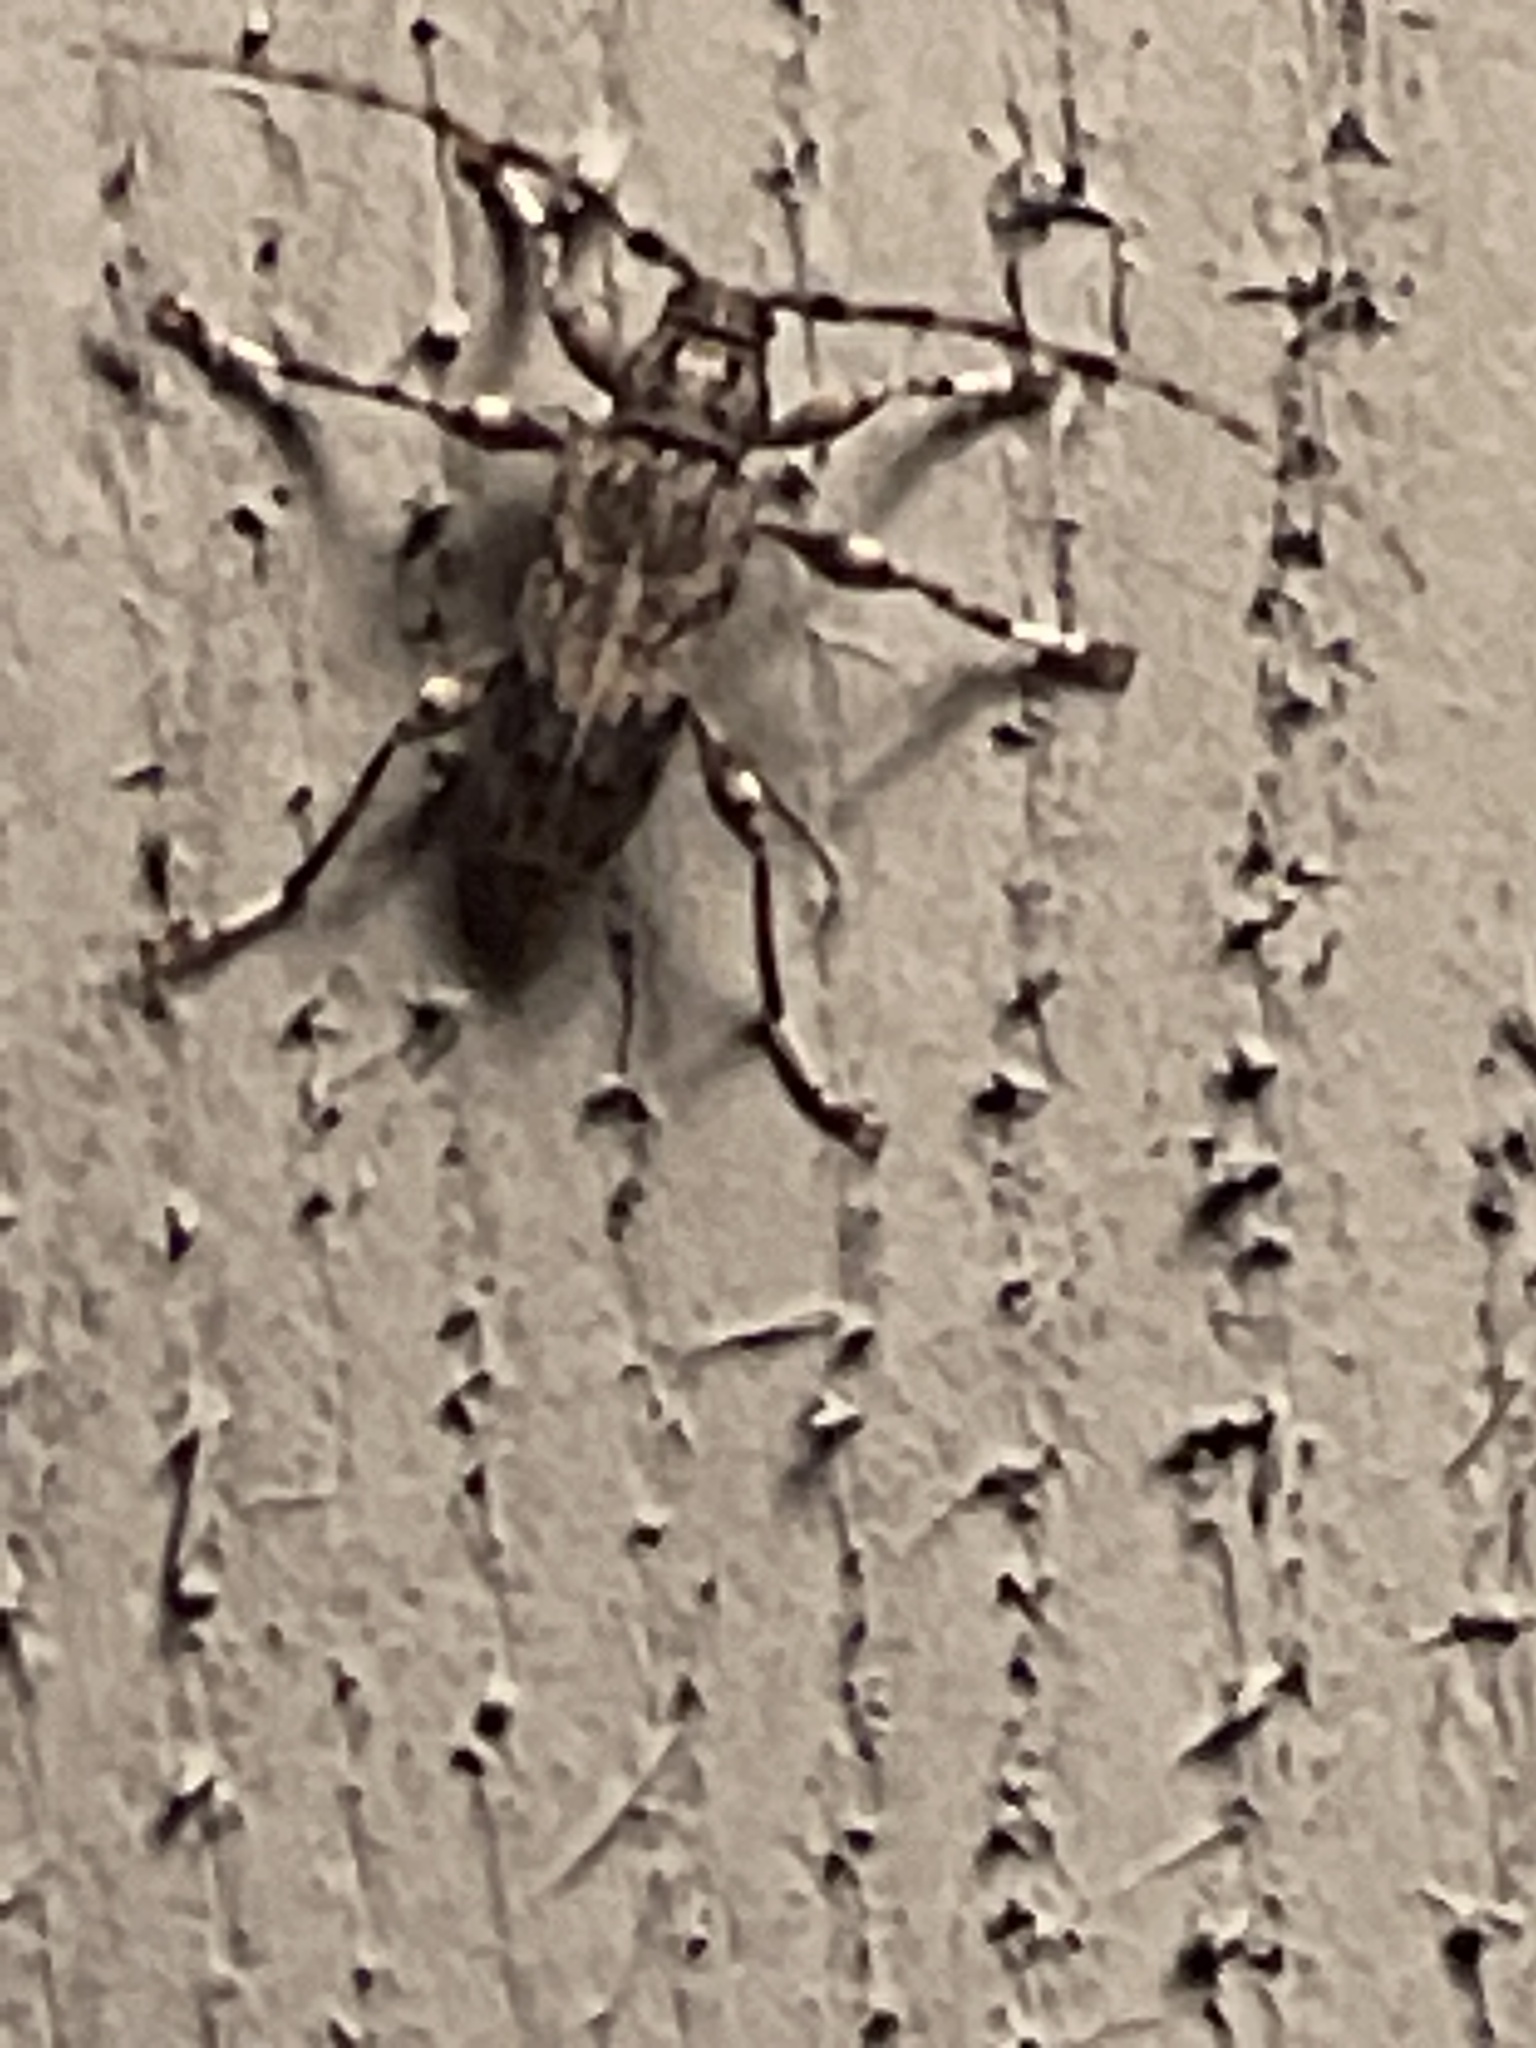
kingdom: Animalia
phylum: Arthropoda
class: Insecta
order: Coleoptera
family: Cerambycidae
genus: Aegomorphus
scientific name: Aegomorphus modestus
